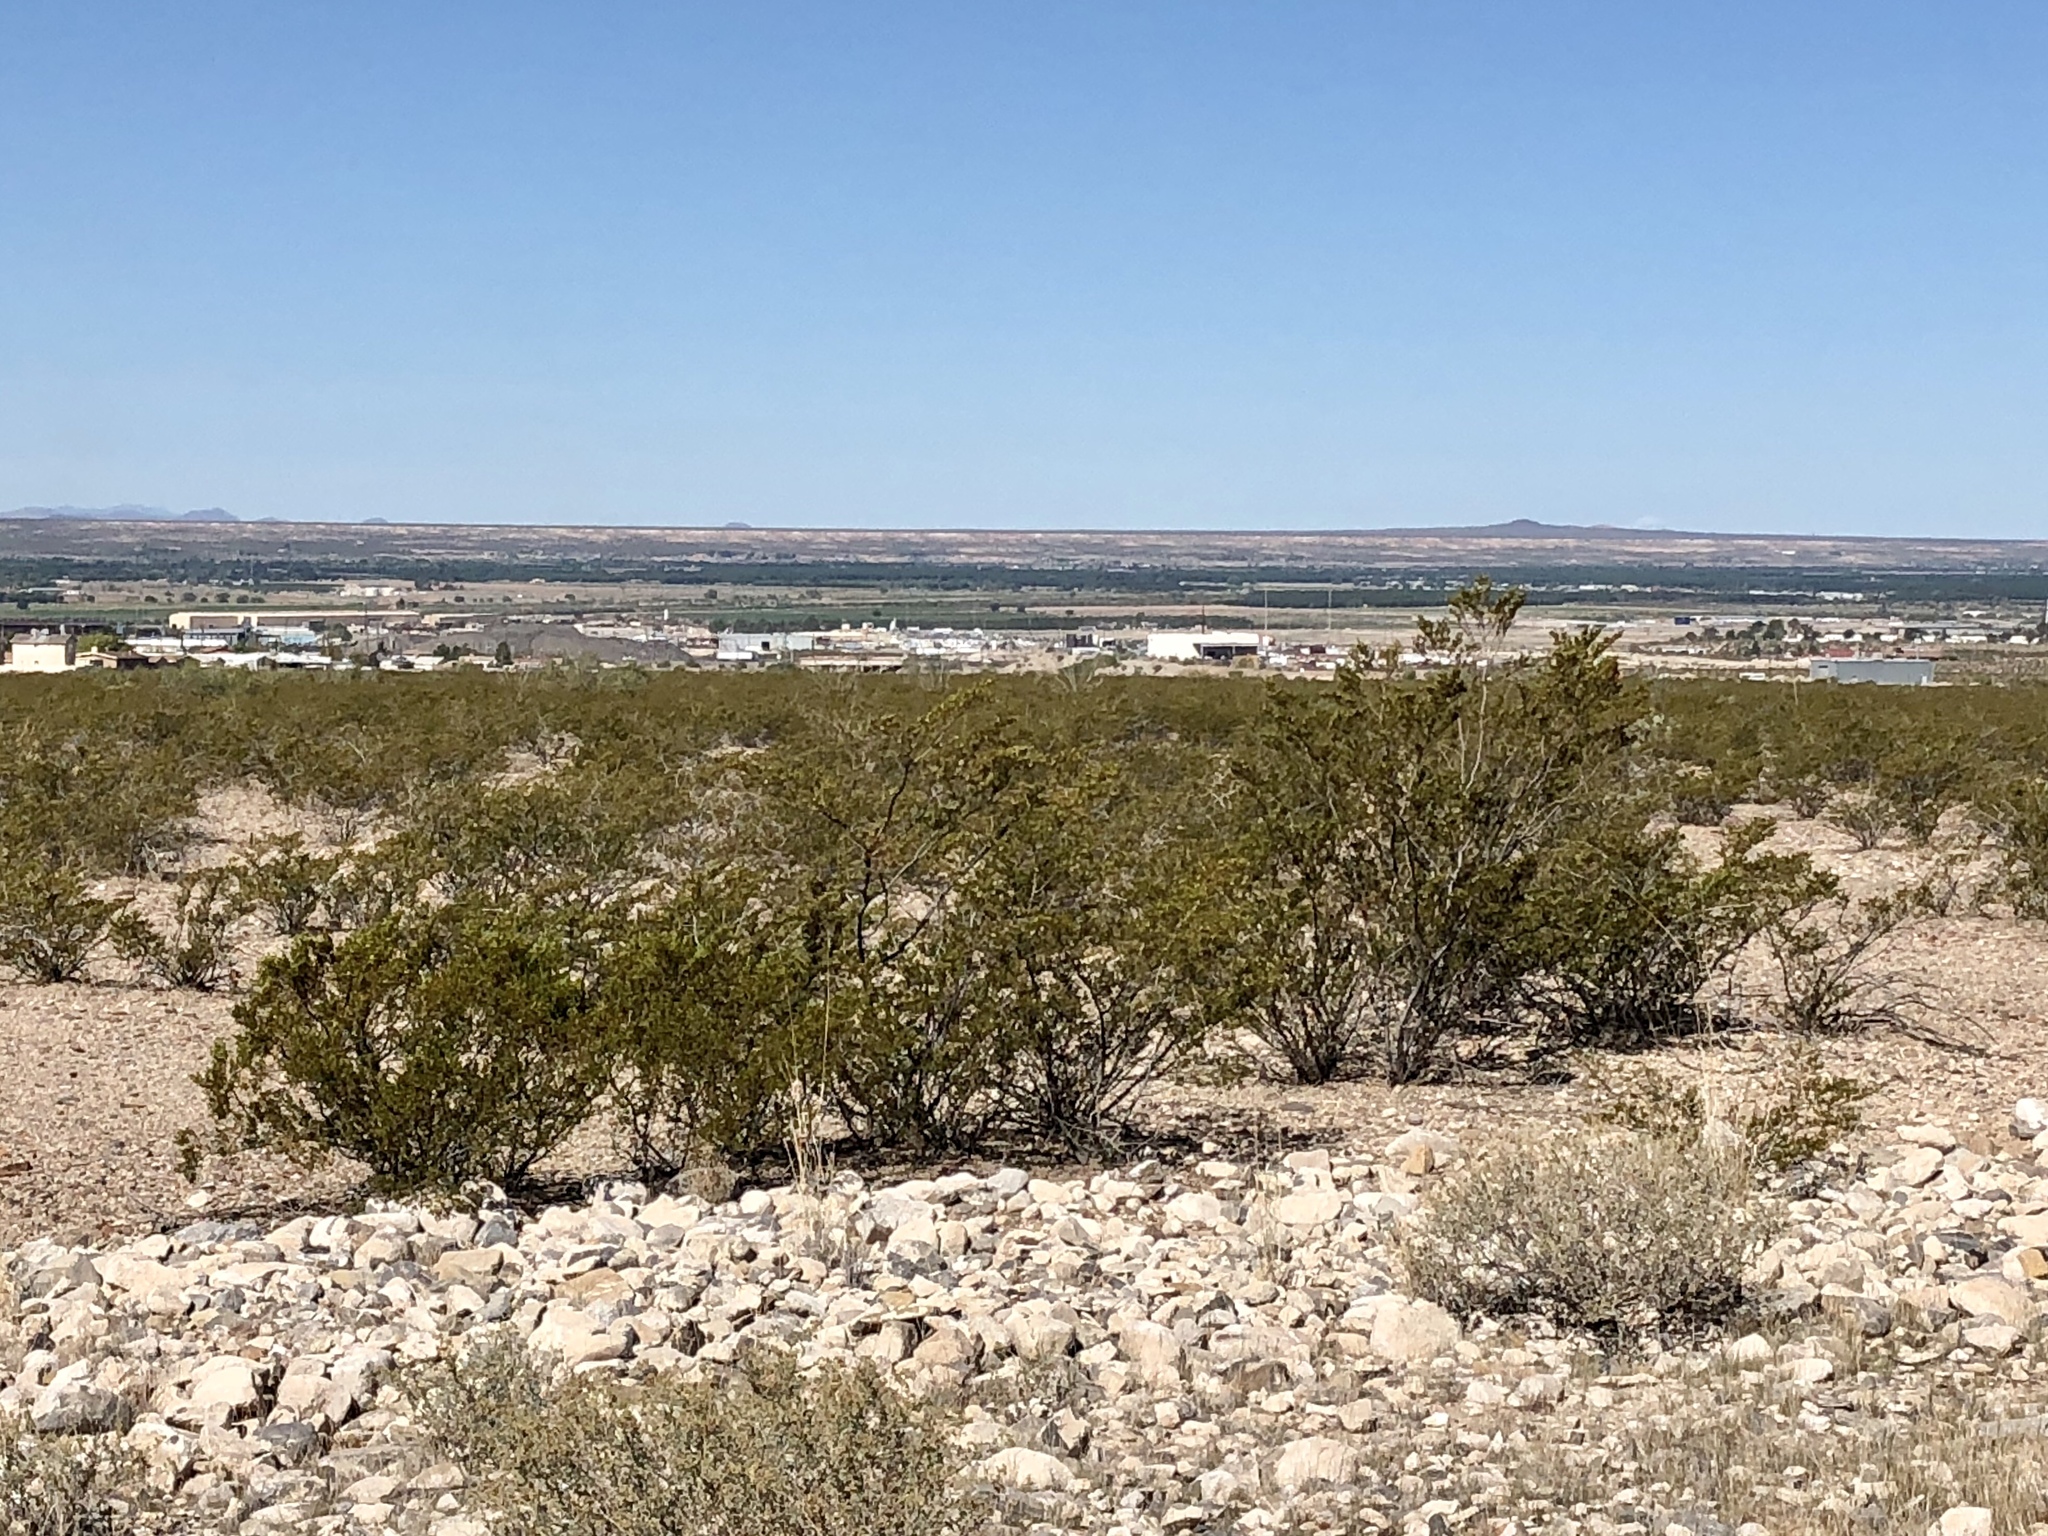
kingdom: Plantae
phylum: Tracheophyta
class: Magnoliopsida
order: Zygophyllales
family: Zygophyllaceae
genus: Larrea
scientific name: Larrea tridentata
